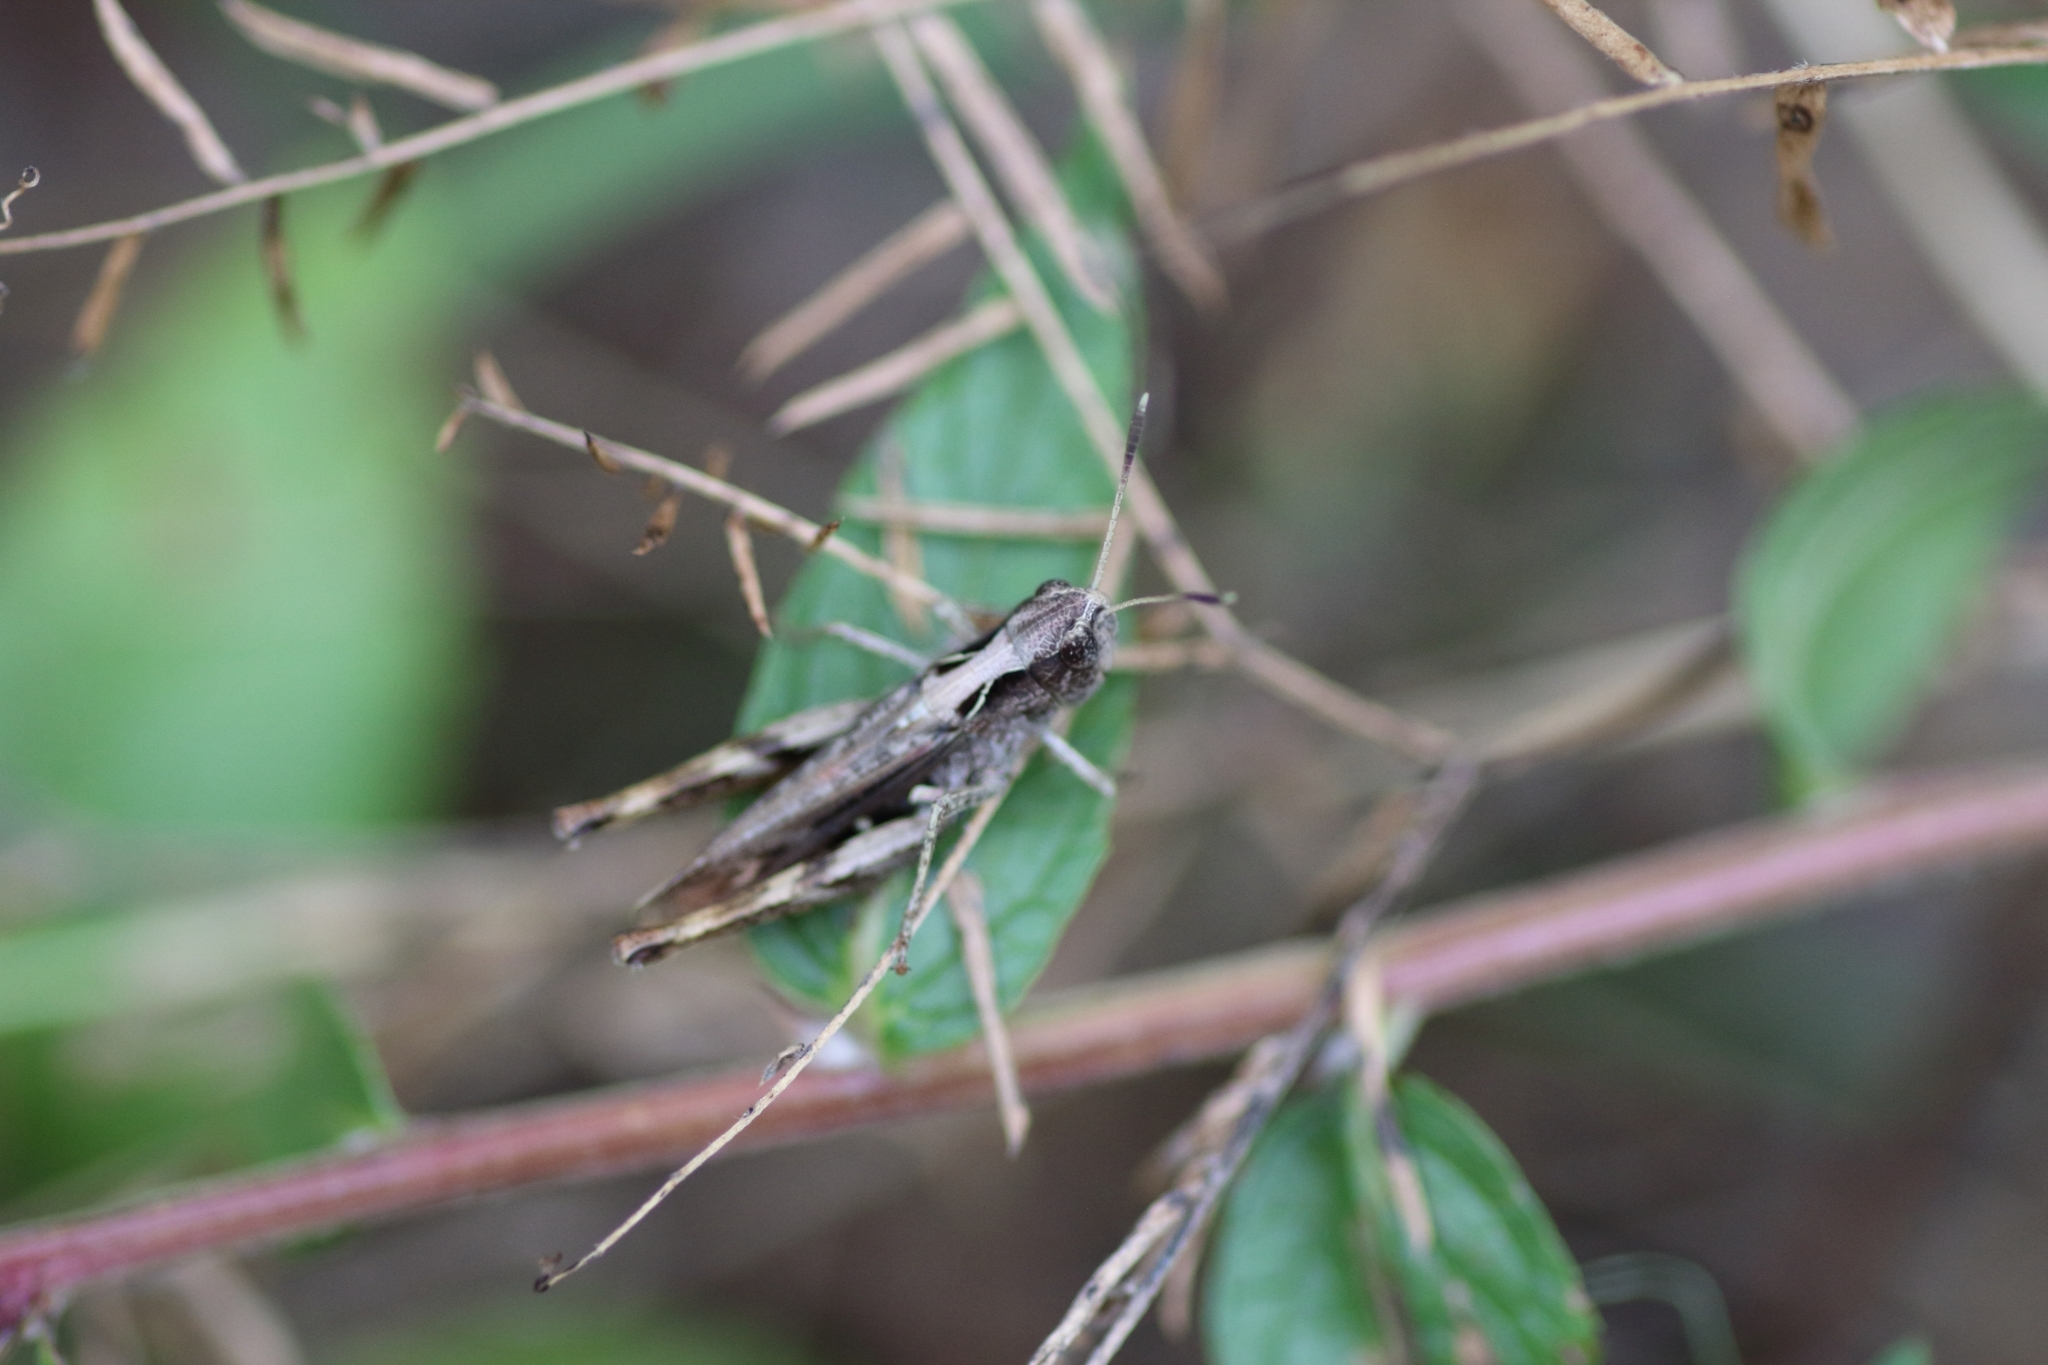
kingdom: Animalia
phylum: Arthropoda
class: Insecta
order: Orthoptera
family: Acrididae
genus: Gomphocerippus
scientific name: Gomphocerippus rufus
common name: Rufous grasshopper
